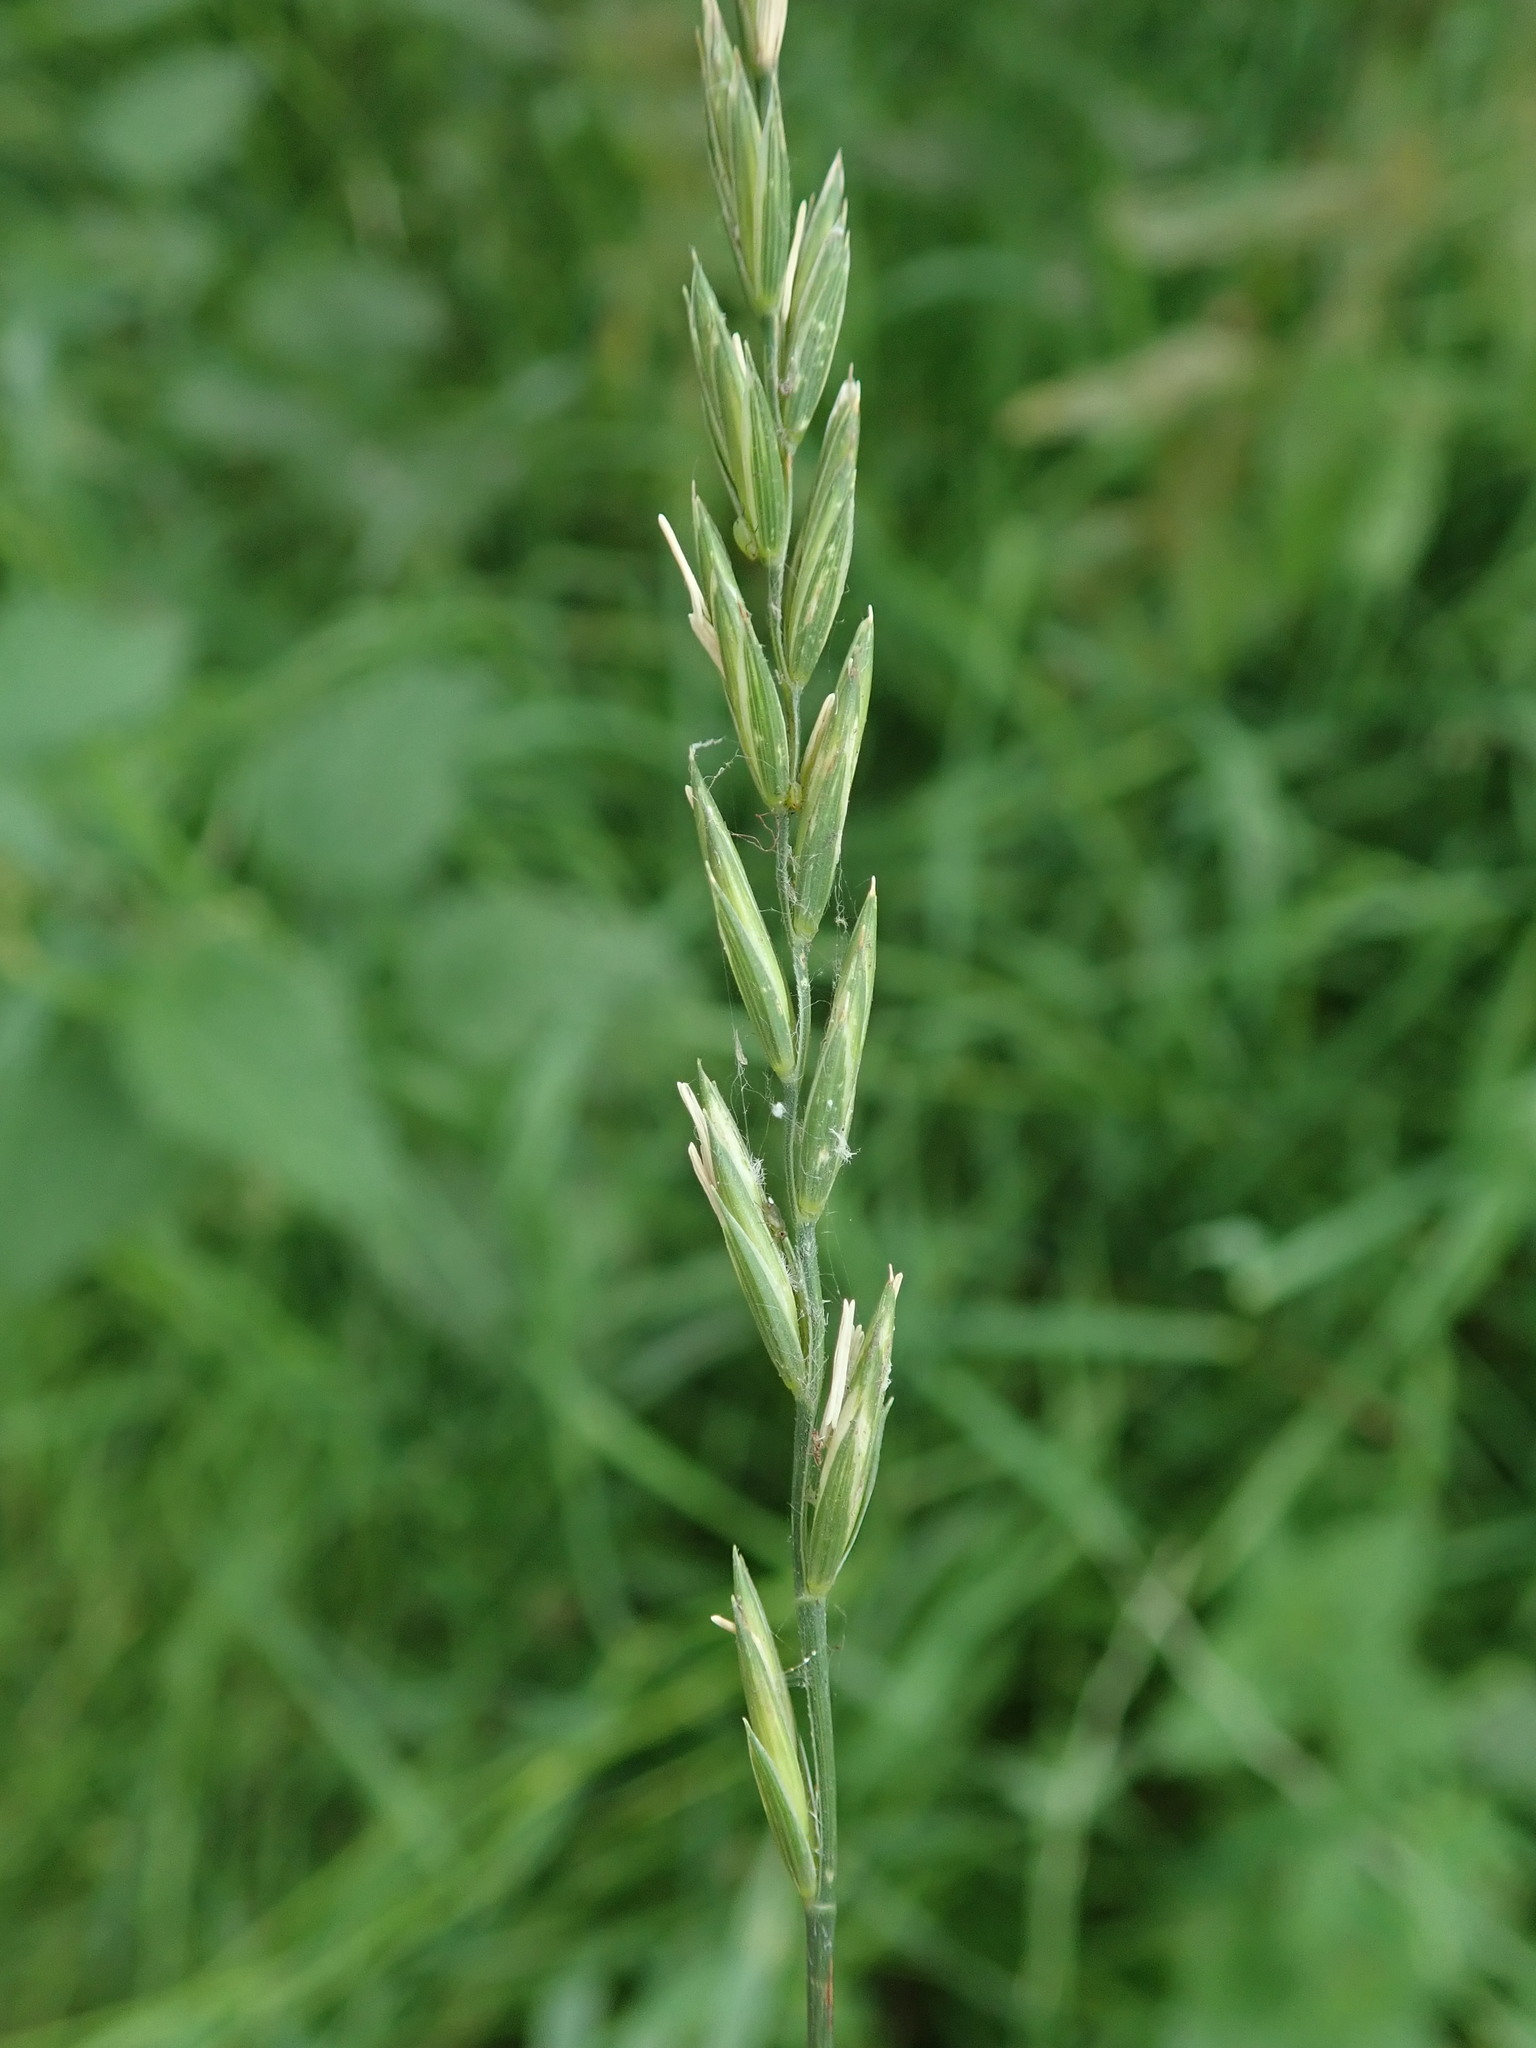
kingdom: Plantae
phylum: Tracheophyta
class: Liliopsida
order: Poales
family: Poaceae
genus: Elymus
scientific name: Elymus repens
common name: Quackgrass
